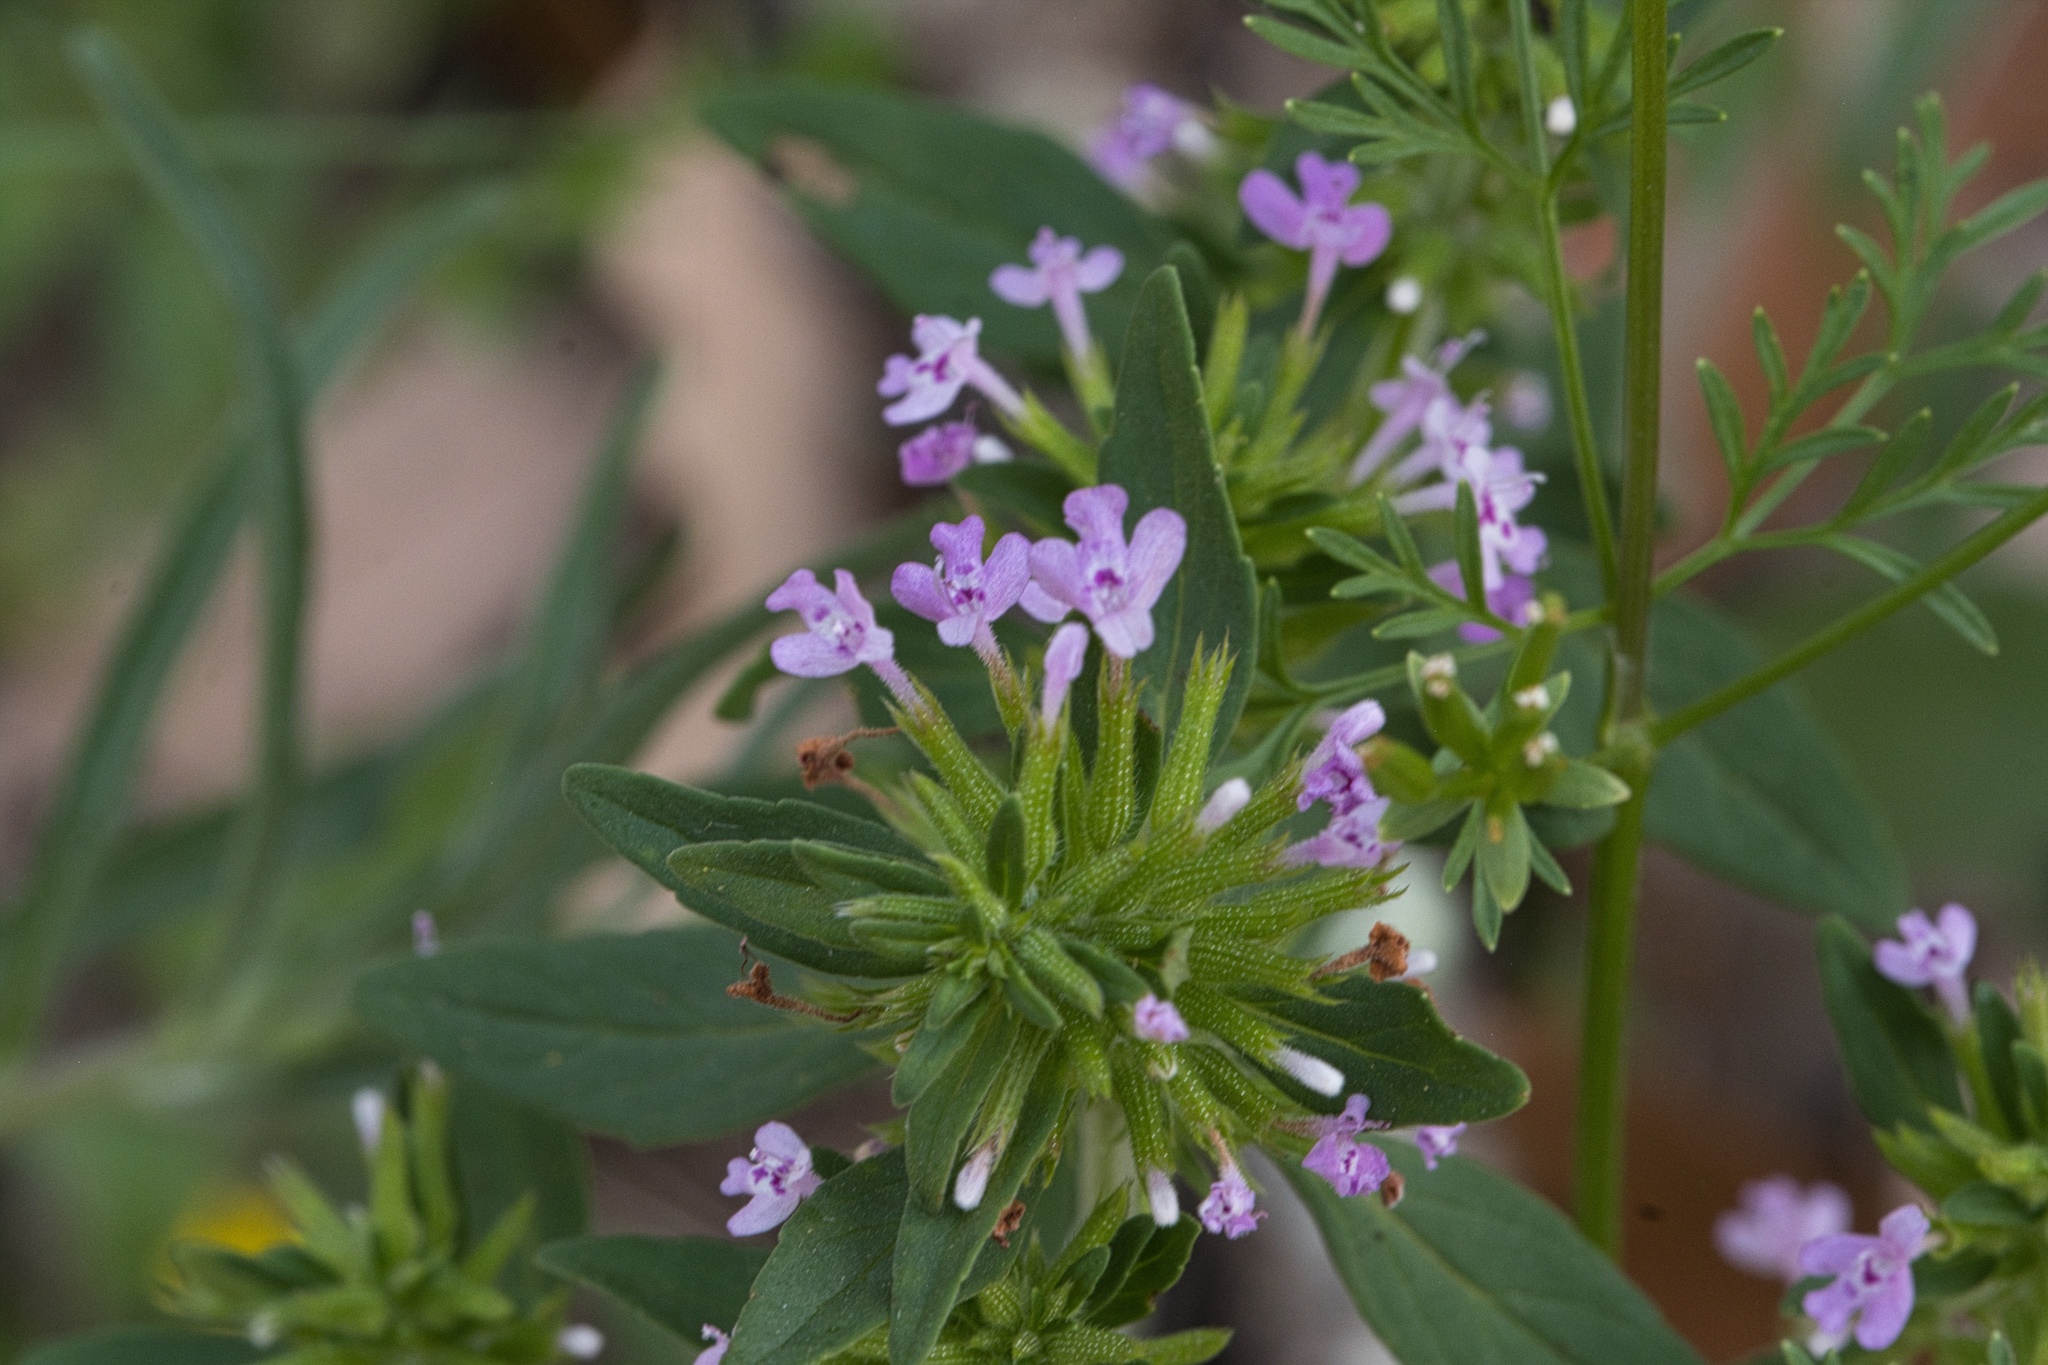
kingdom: Plantae
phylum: Tracheophyta
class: Magnoliopsida
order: Lamiales
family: Lamiaceae
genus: Hedeoma
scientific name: Hedeoma acinoides
